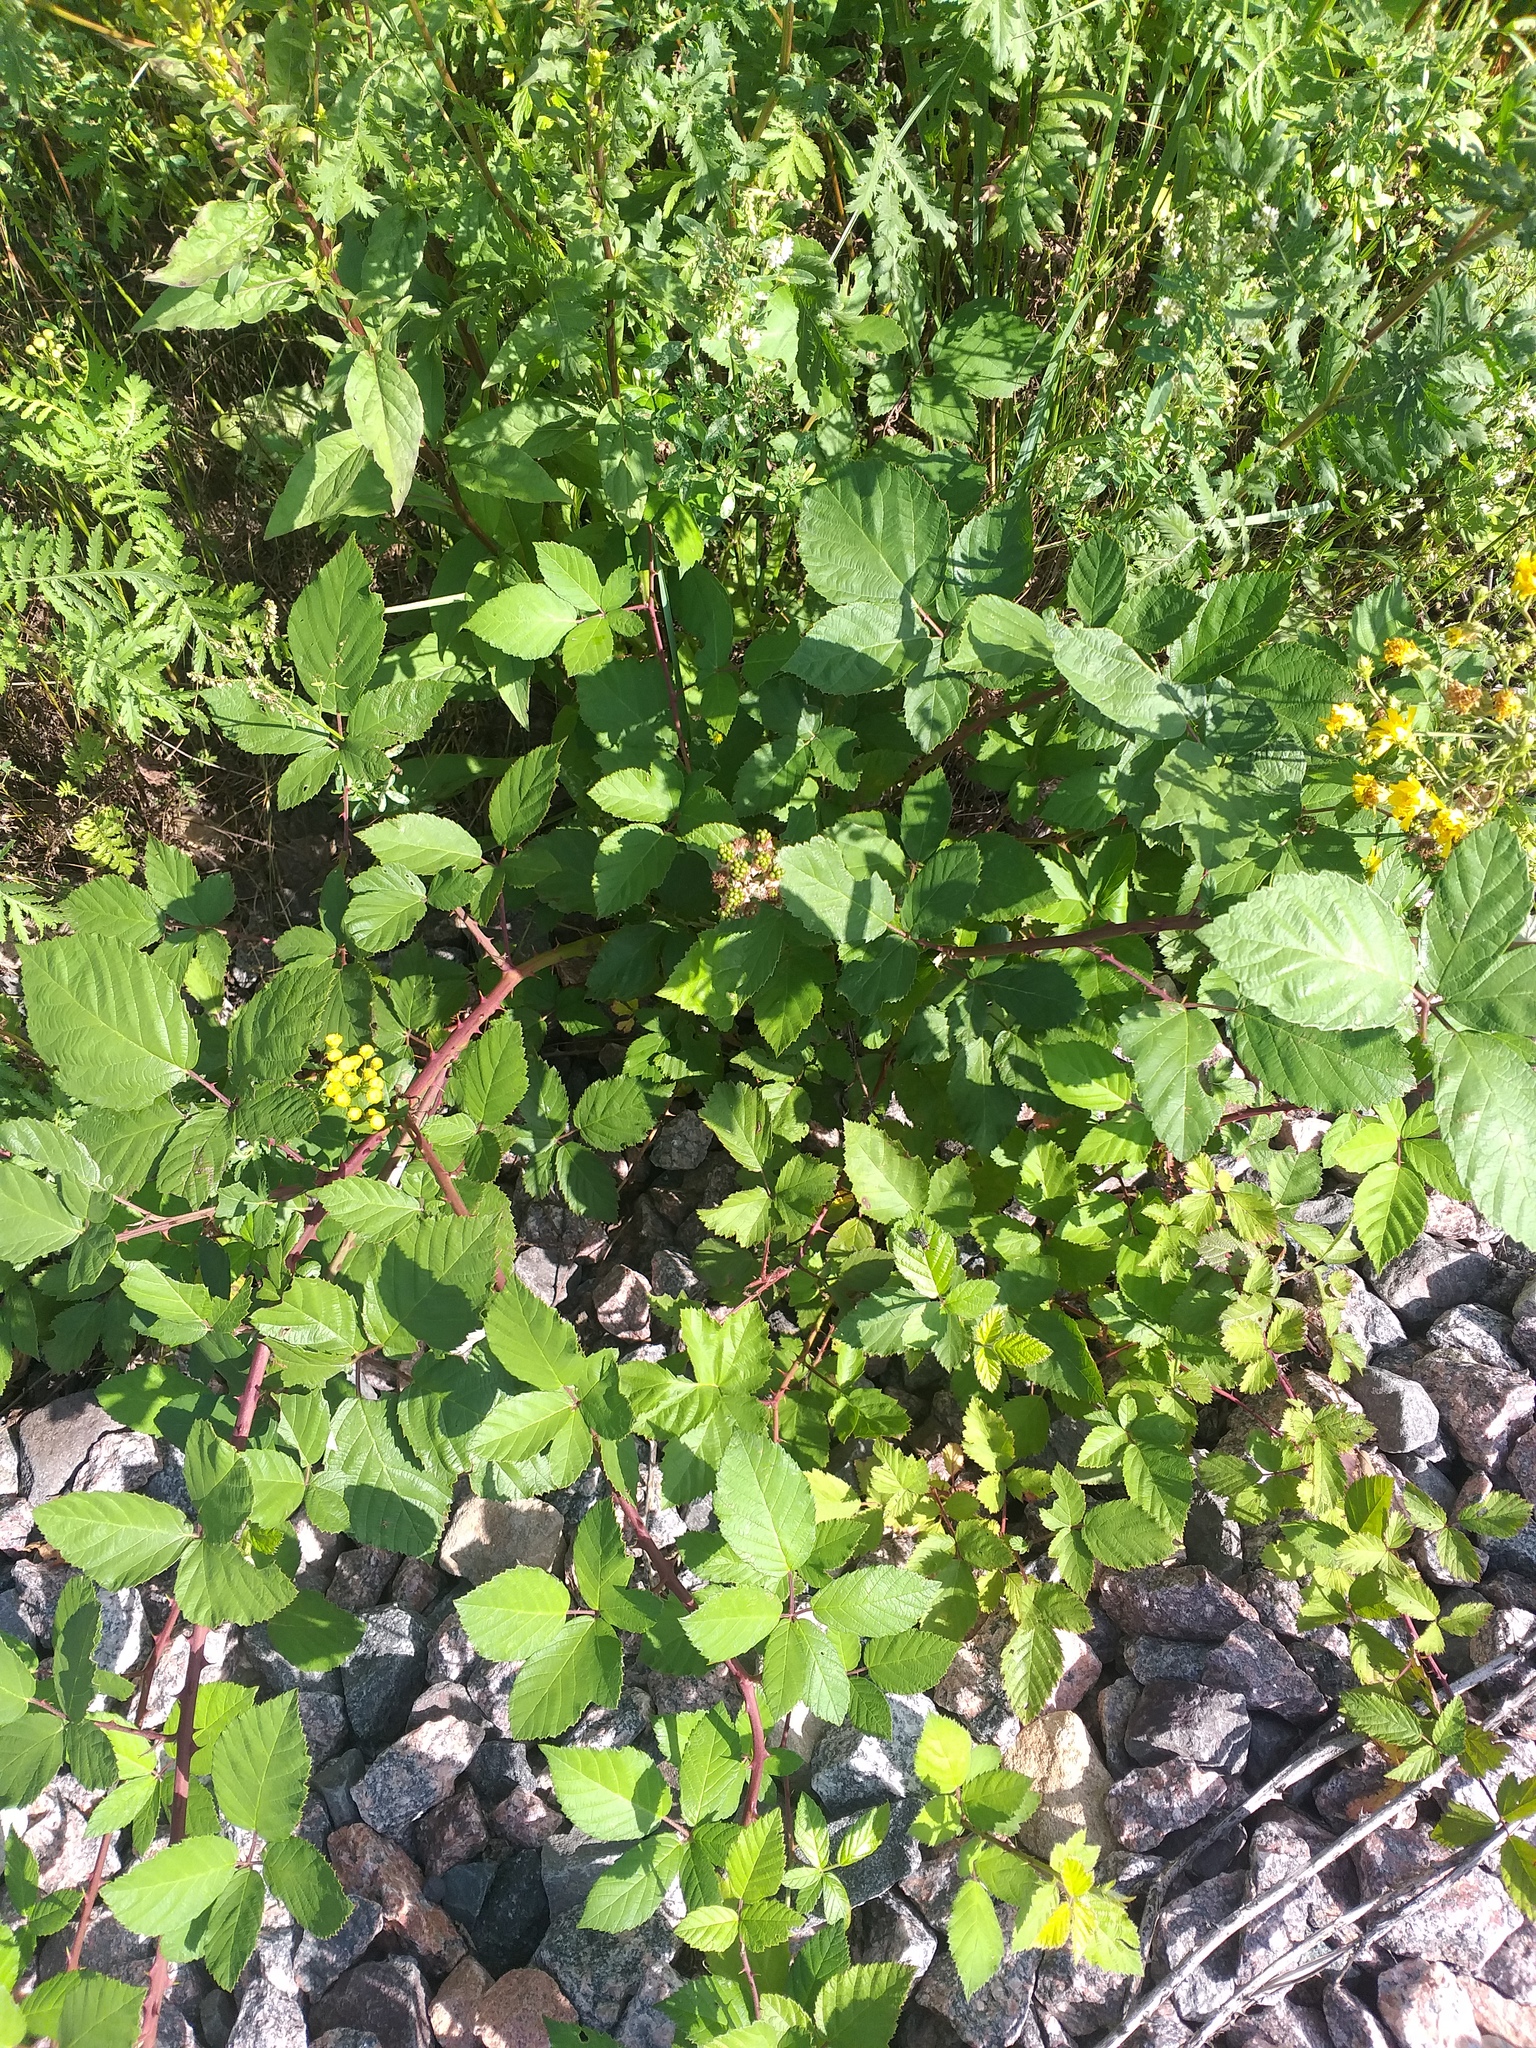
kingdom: Plantae
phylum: Tracheophyta
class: Magnoliopsida
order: Rosales
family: Rosaceae
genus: Rubus
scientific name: Rubus procerus
